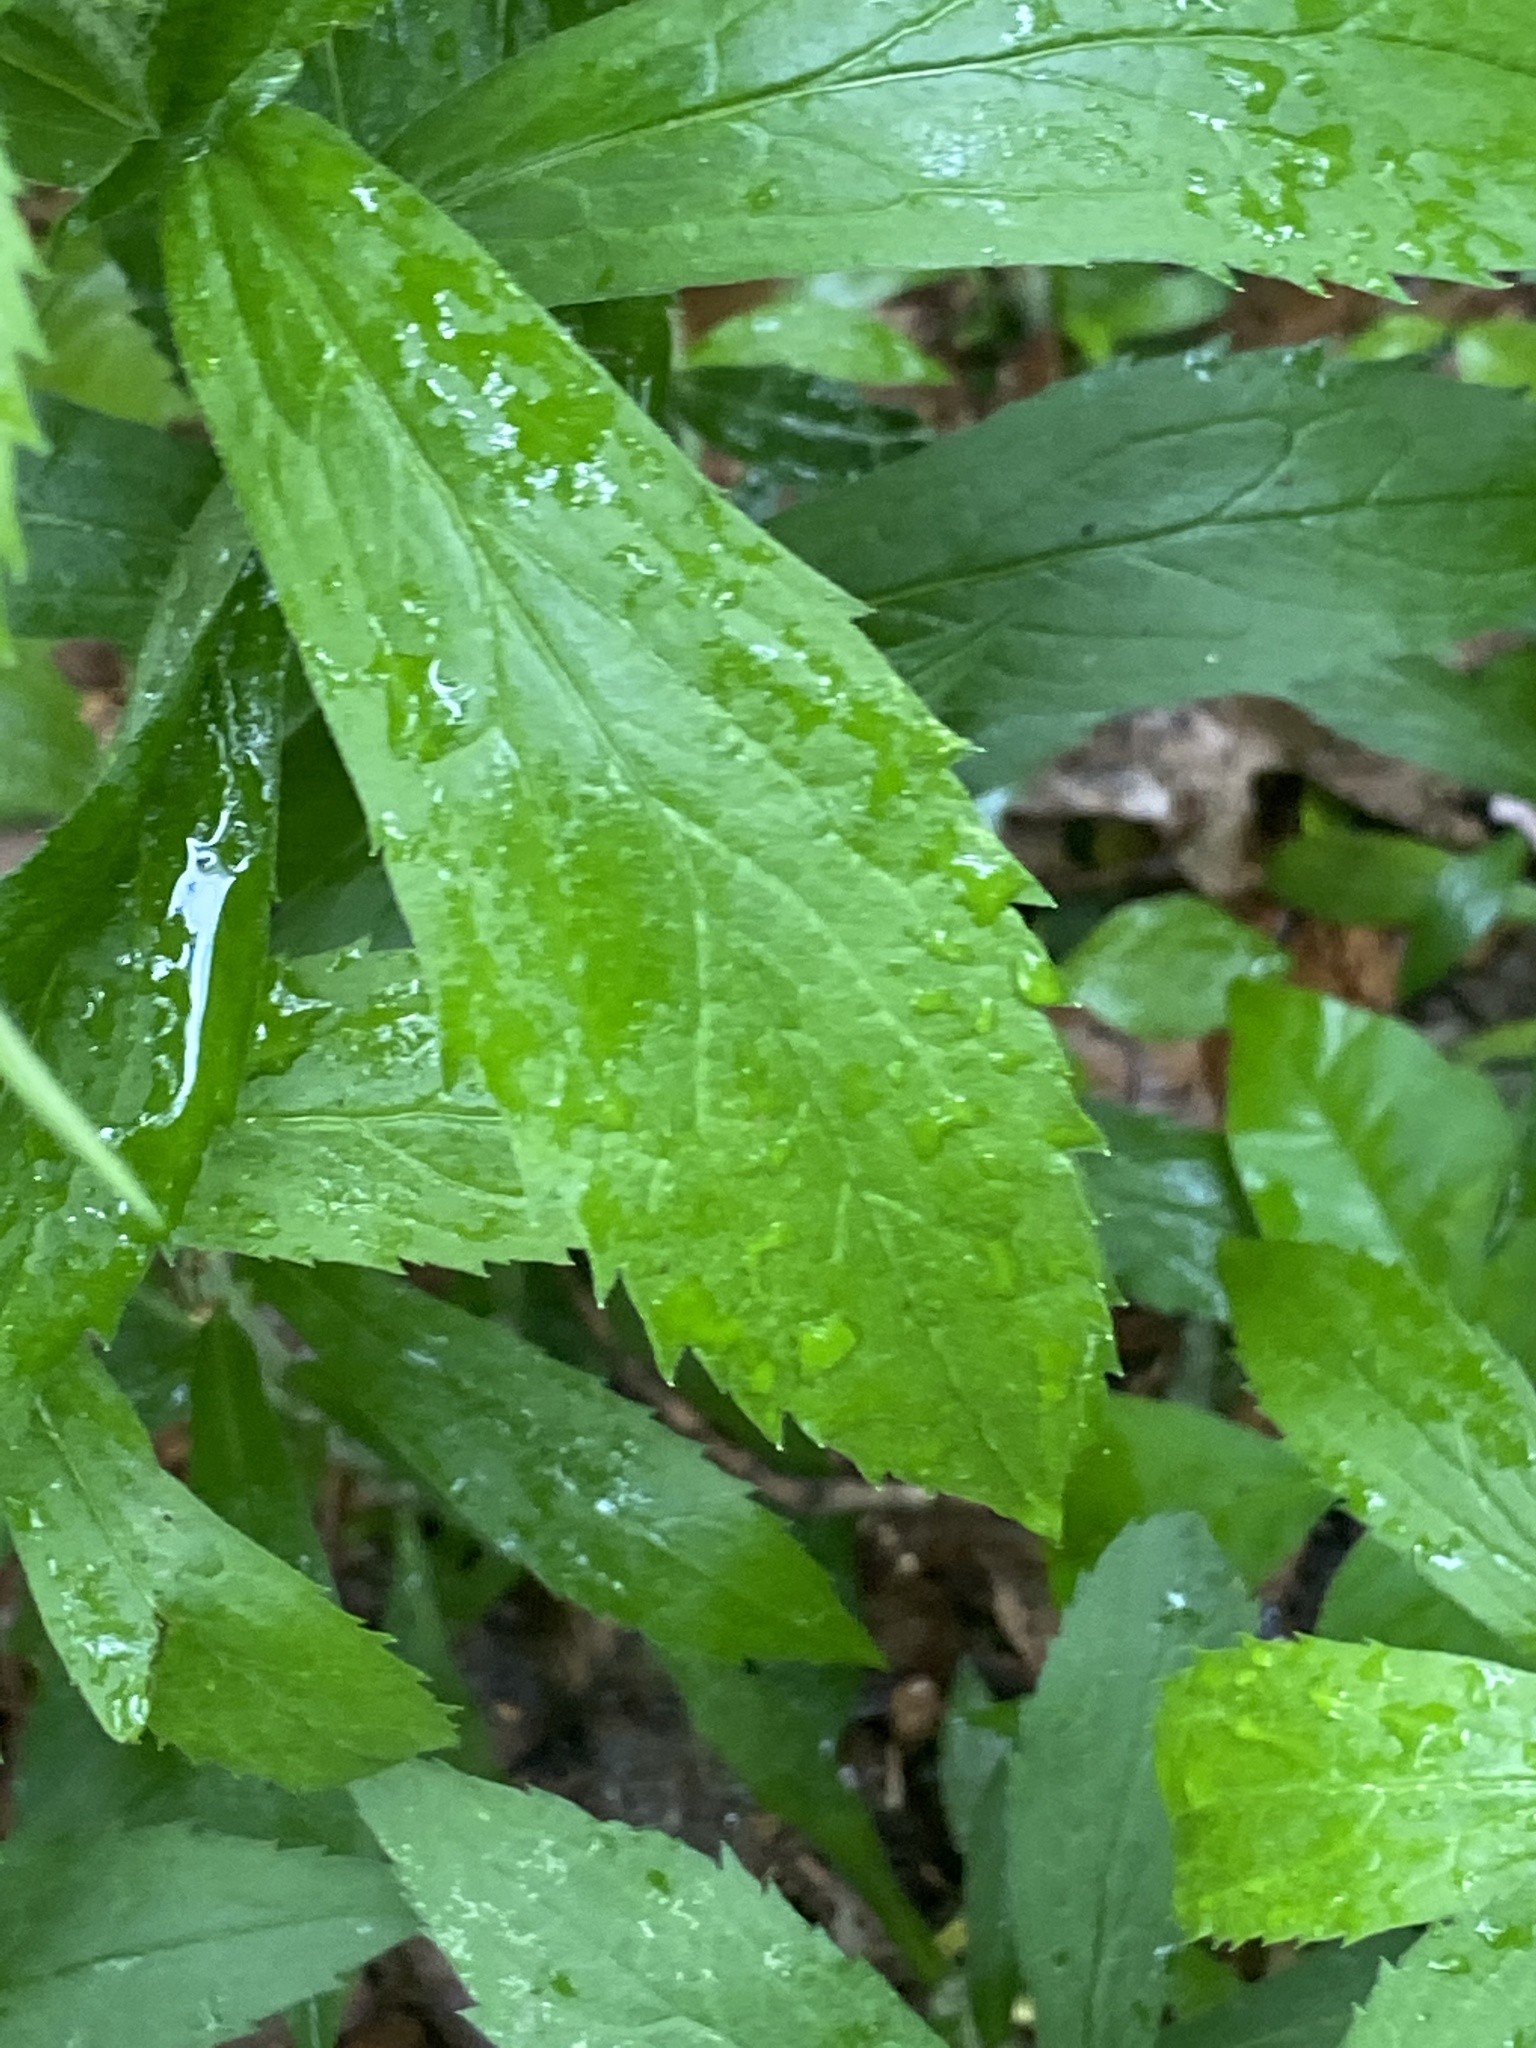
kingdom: Plantae
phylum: Tracheophyta
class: Magnoliopsida
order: Asterales
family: Asteraceae
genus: Solidago
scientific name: Solidago rugosa
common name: Rough-stemmed goldenrod
